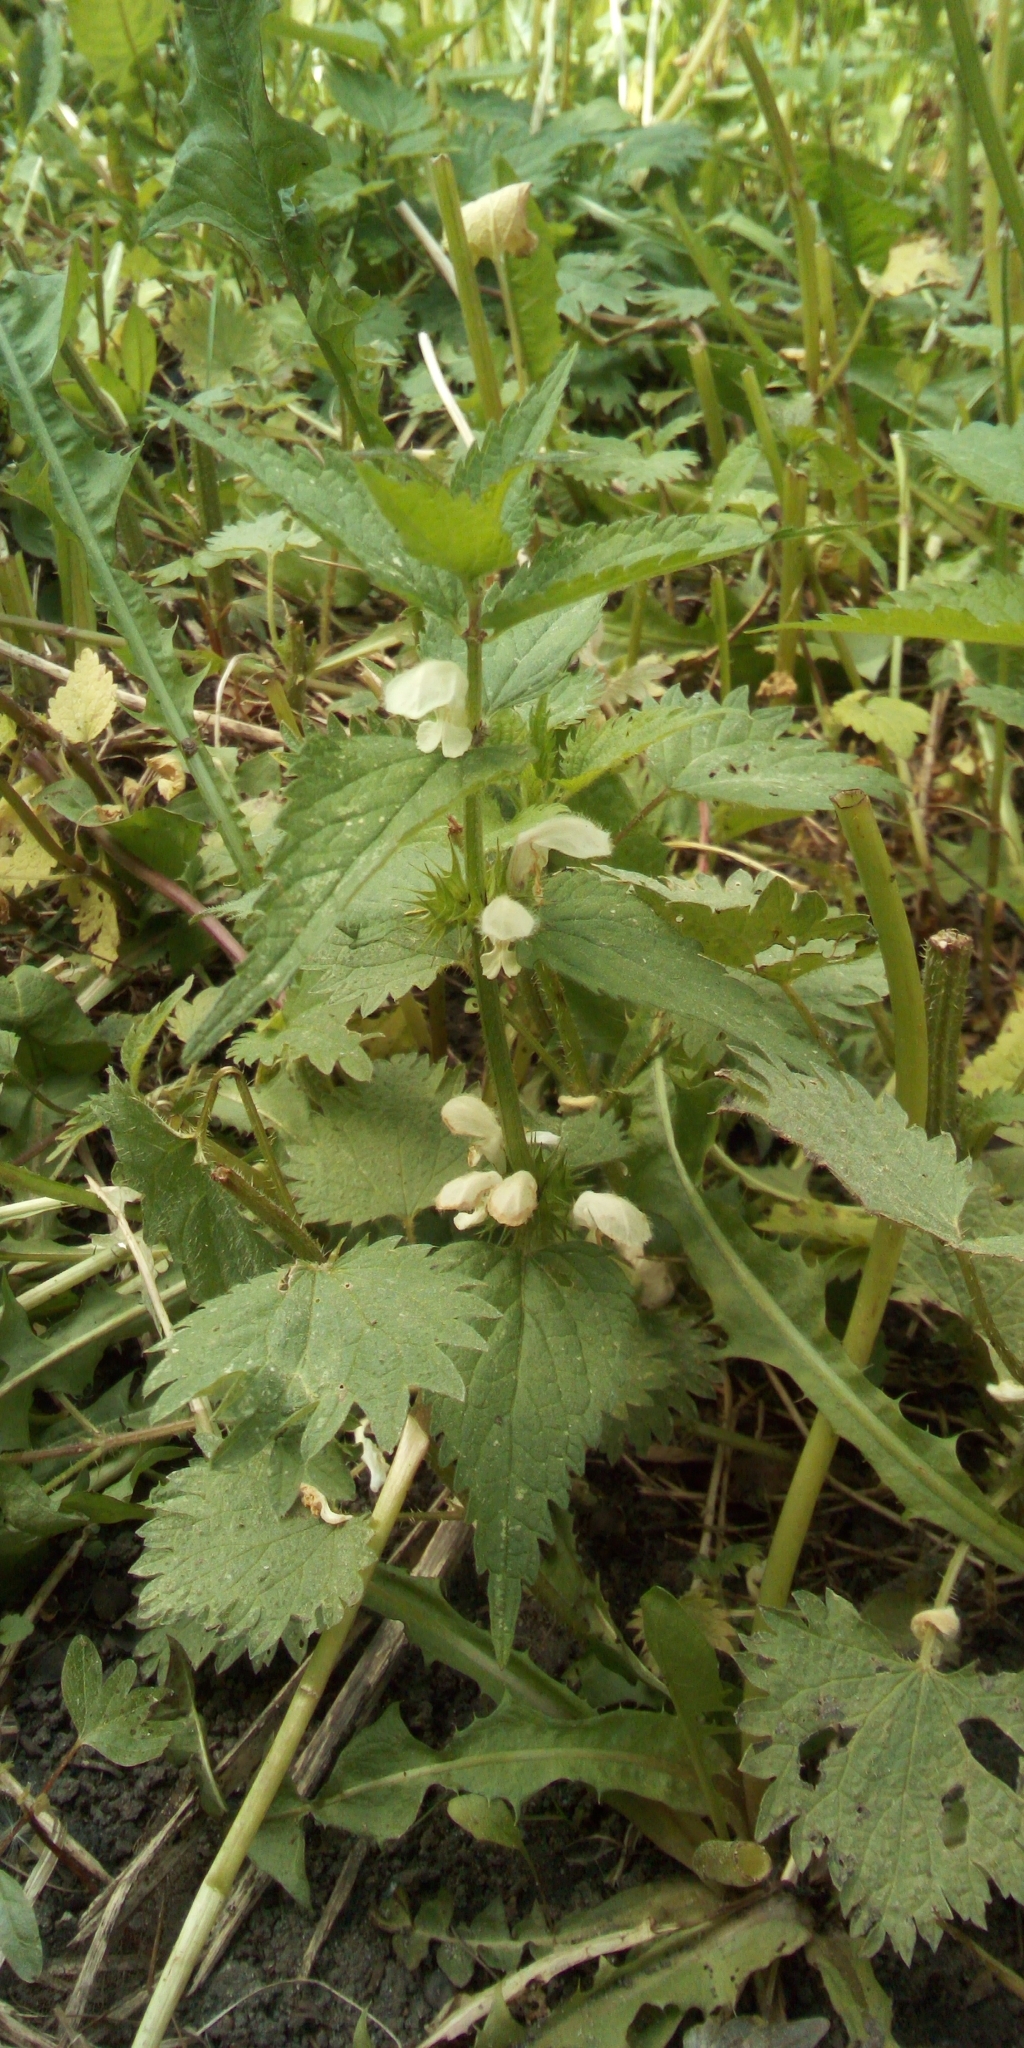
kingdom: Plantae
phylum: Tracheophyta
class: Magnoliopsida
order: Lamiales
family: Lamiaceae
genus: Lamium
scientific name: Lamium album
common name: White dead-nettle
